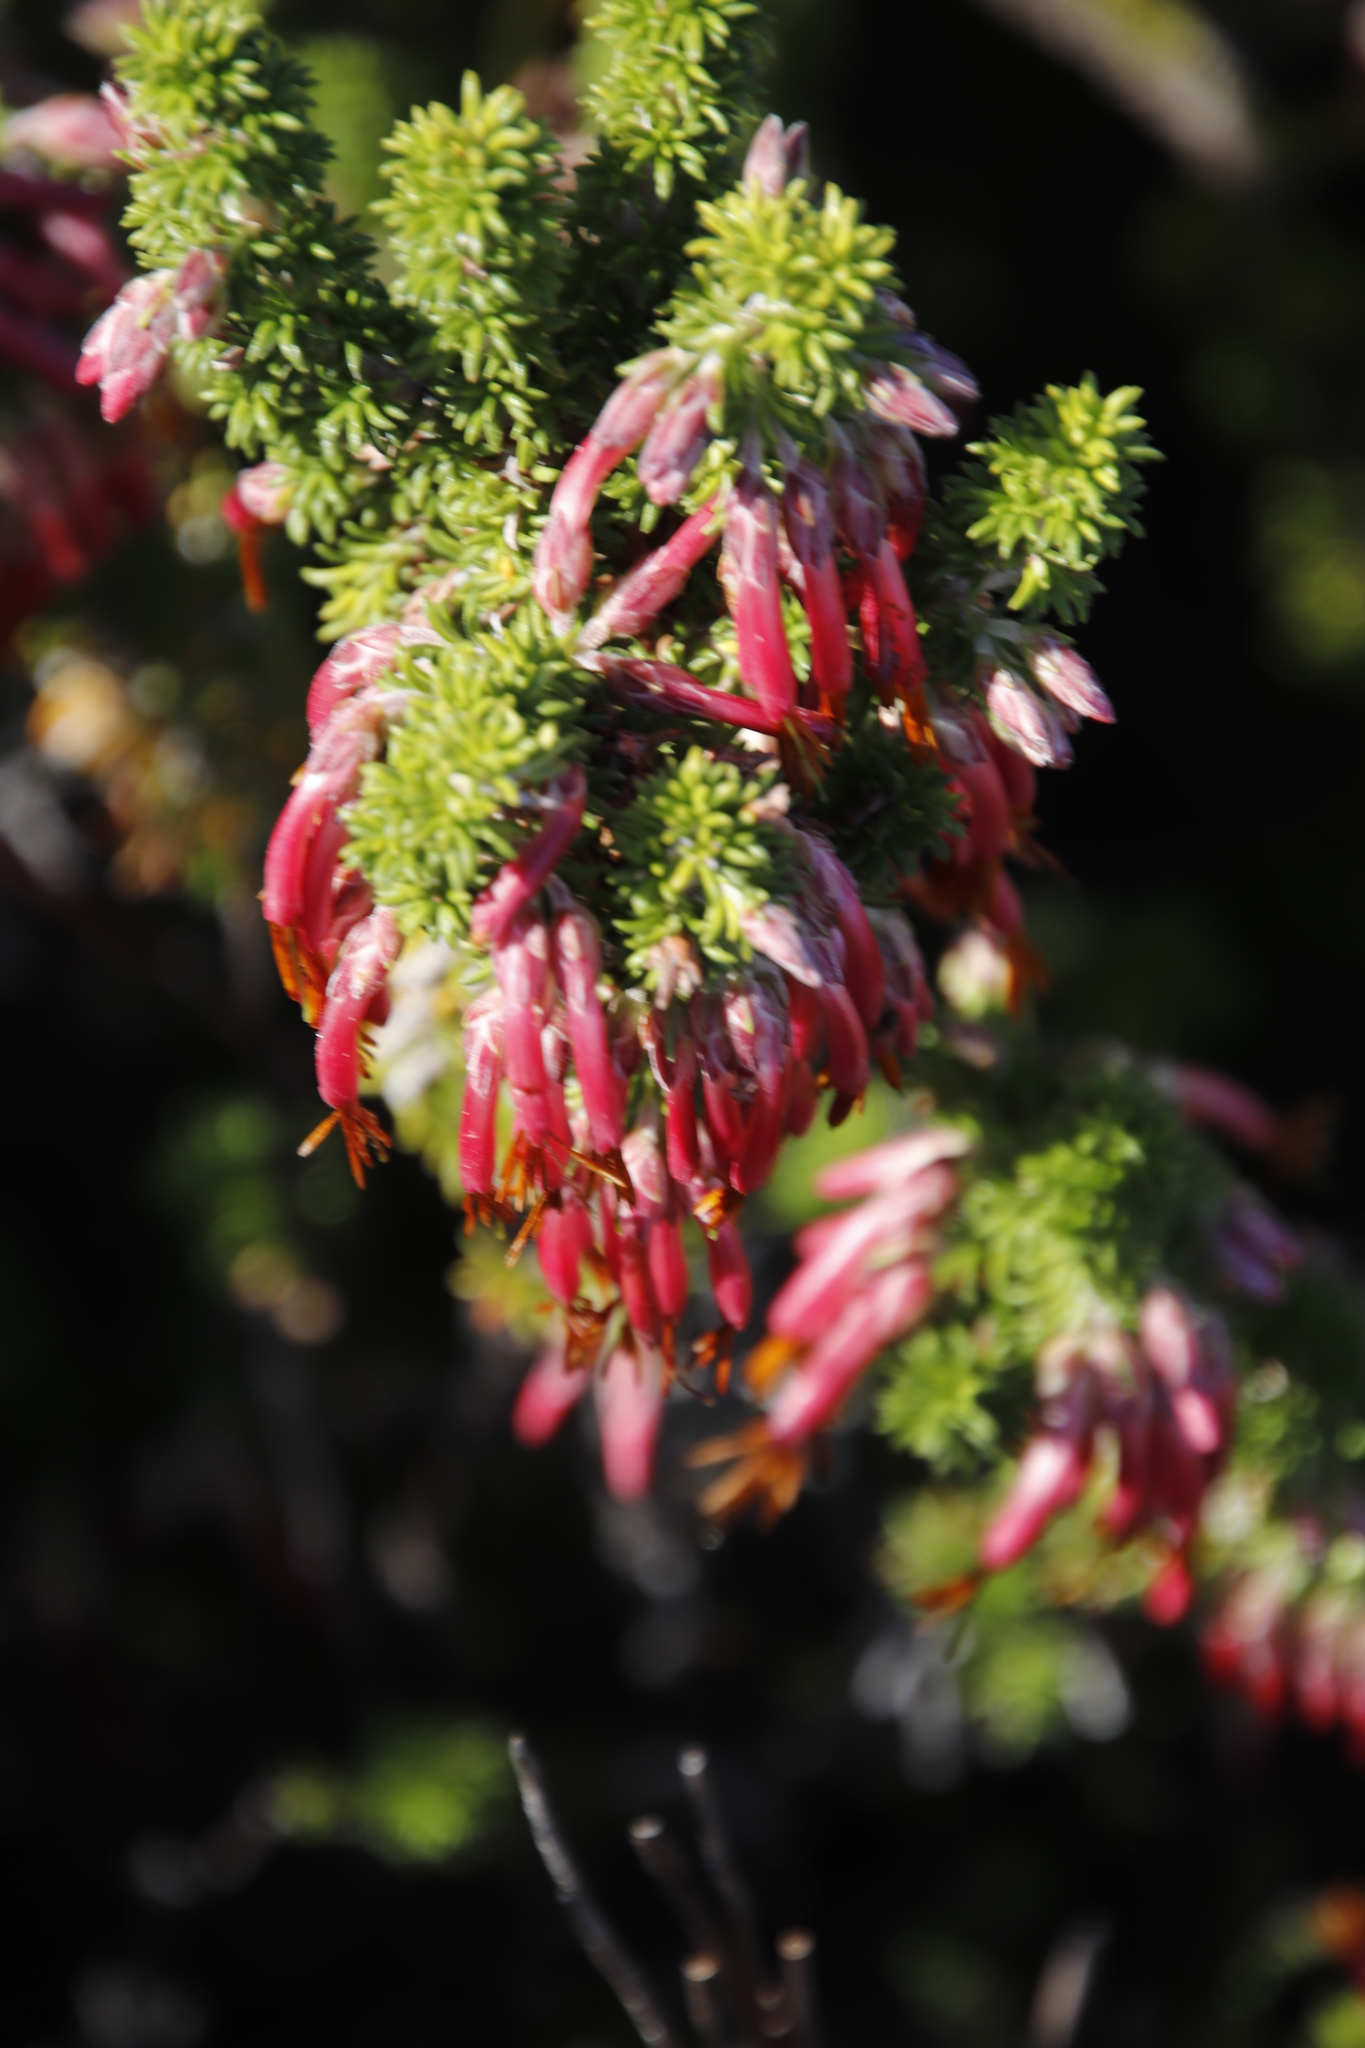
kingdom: Plantae
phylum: Tracheophyta
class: Magnoliopsida
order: Ericales
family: Ericaceae
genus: Erica
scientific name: Erica coccinea
